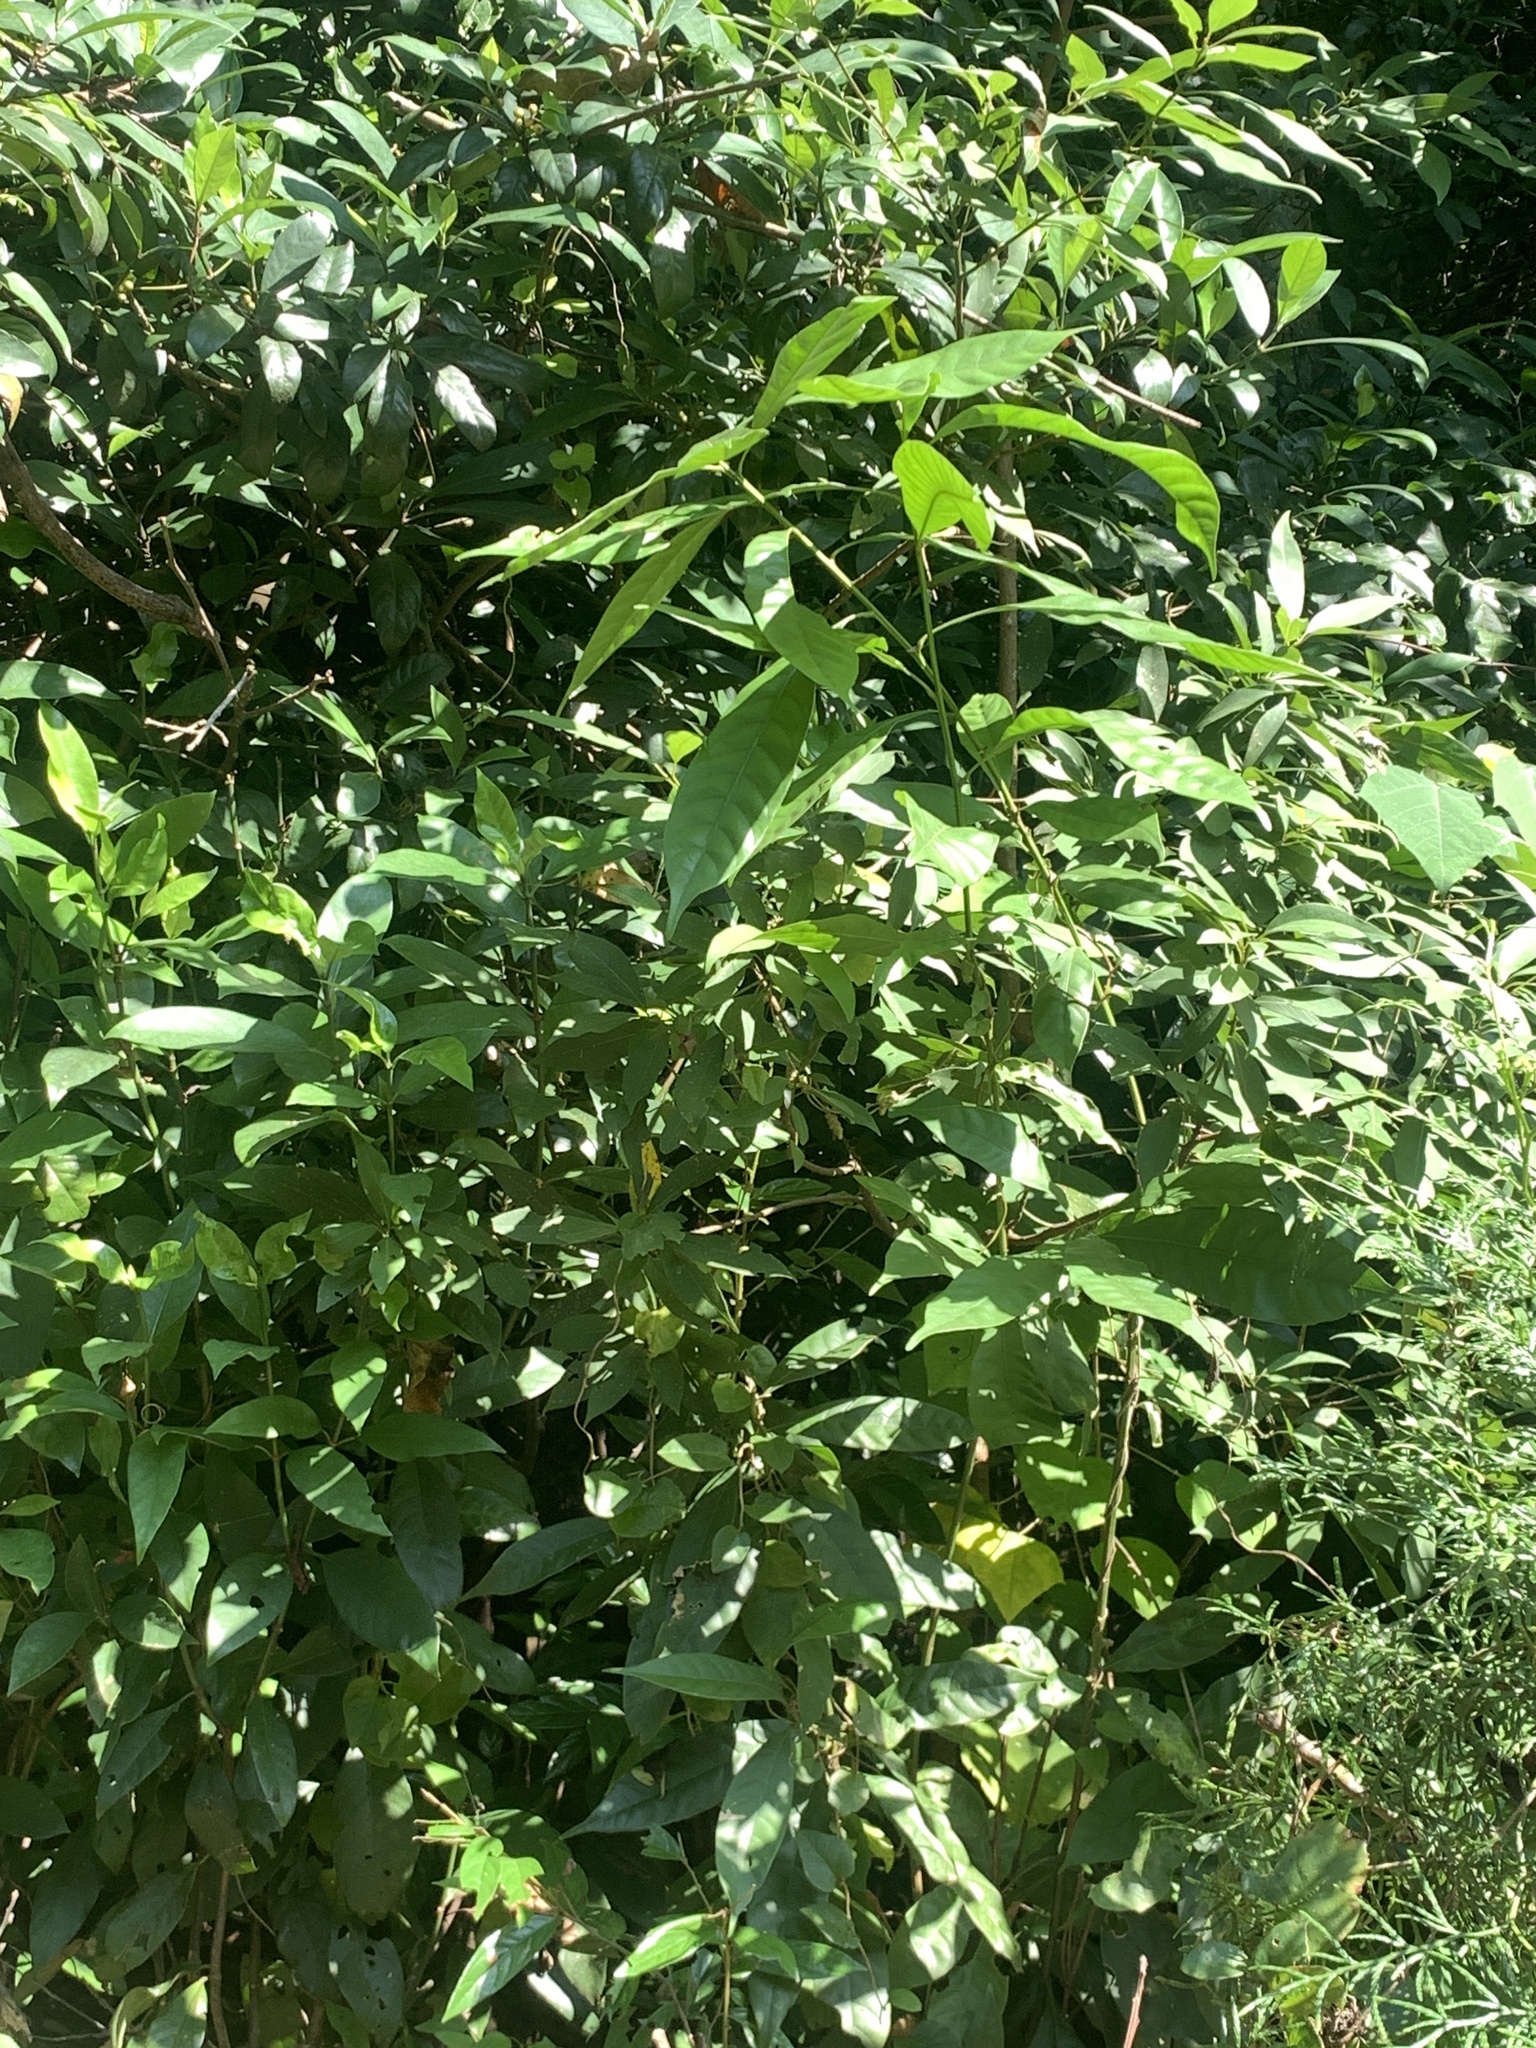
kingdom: Plantae
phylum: Tracheophyta
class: Magnoliopsida
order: Fagales
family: Fagaceae
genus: Lithocarpus
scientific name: Lithocarpus brevicaudatus
